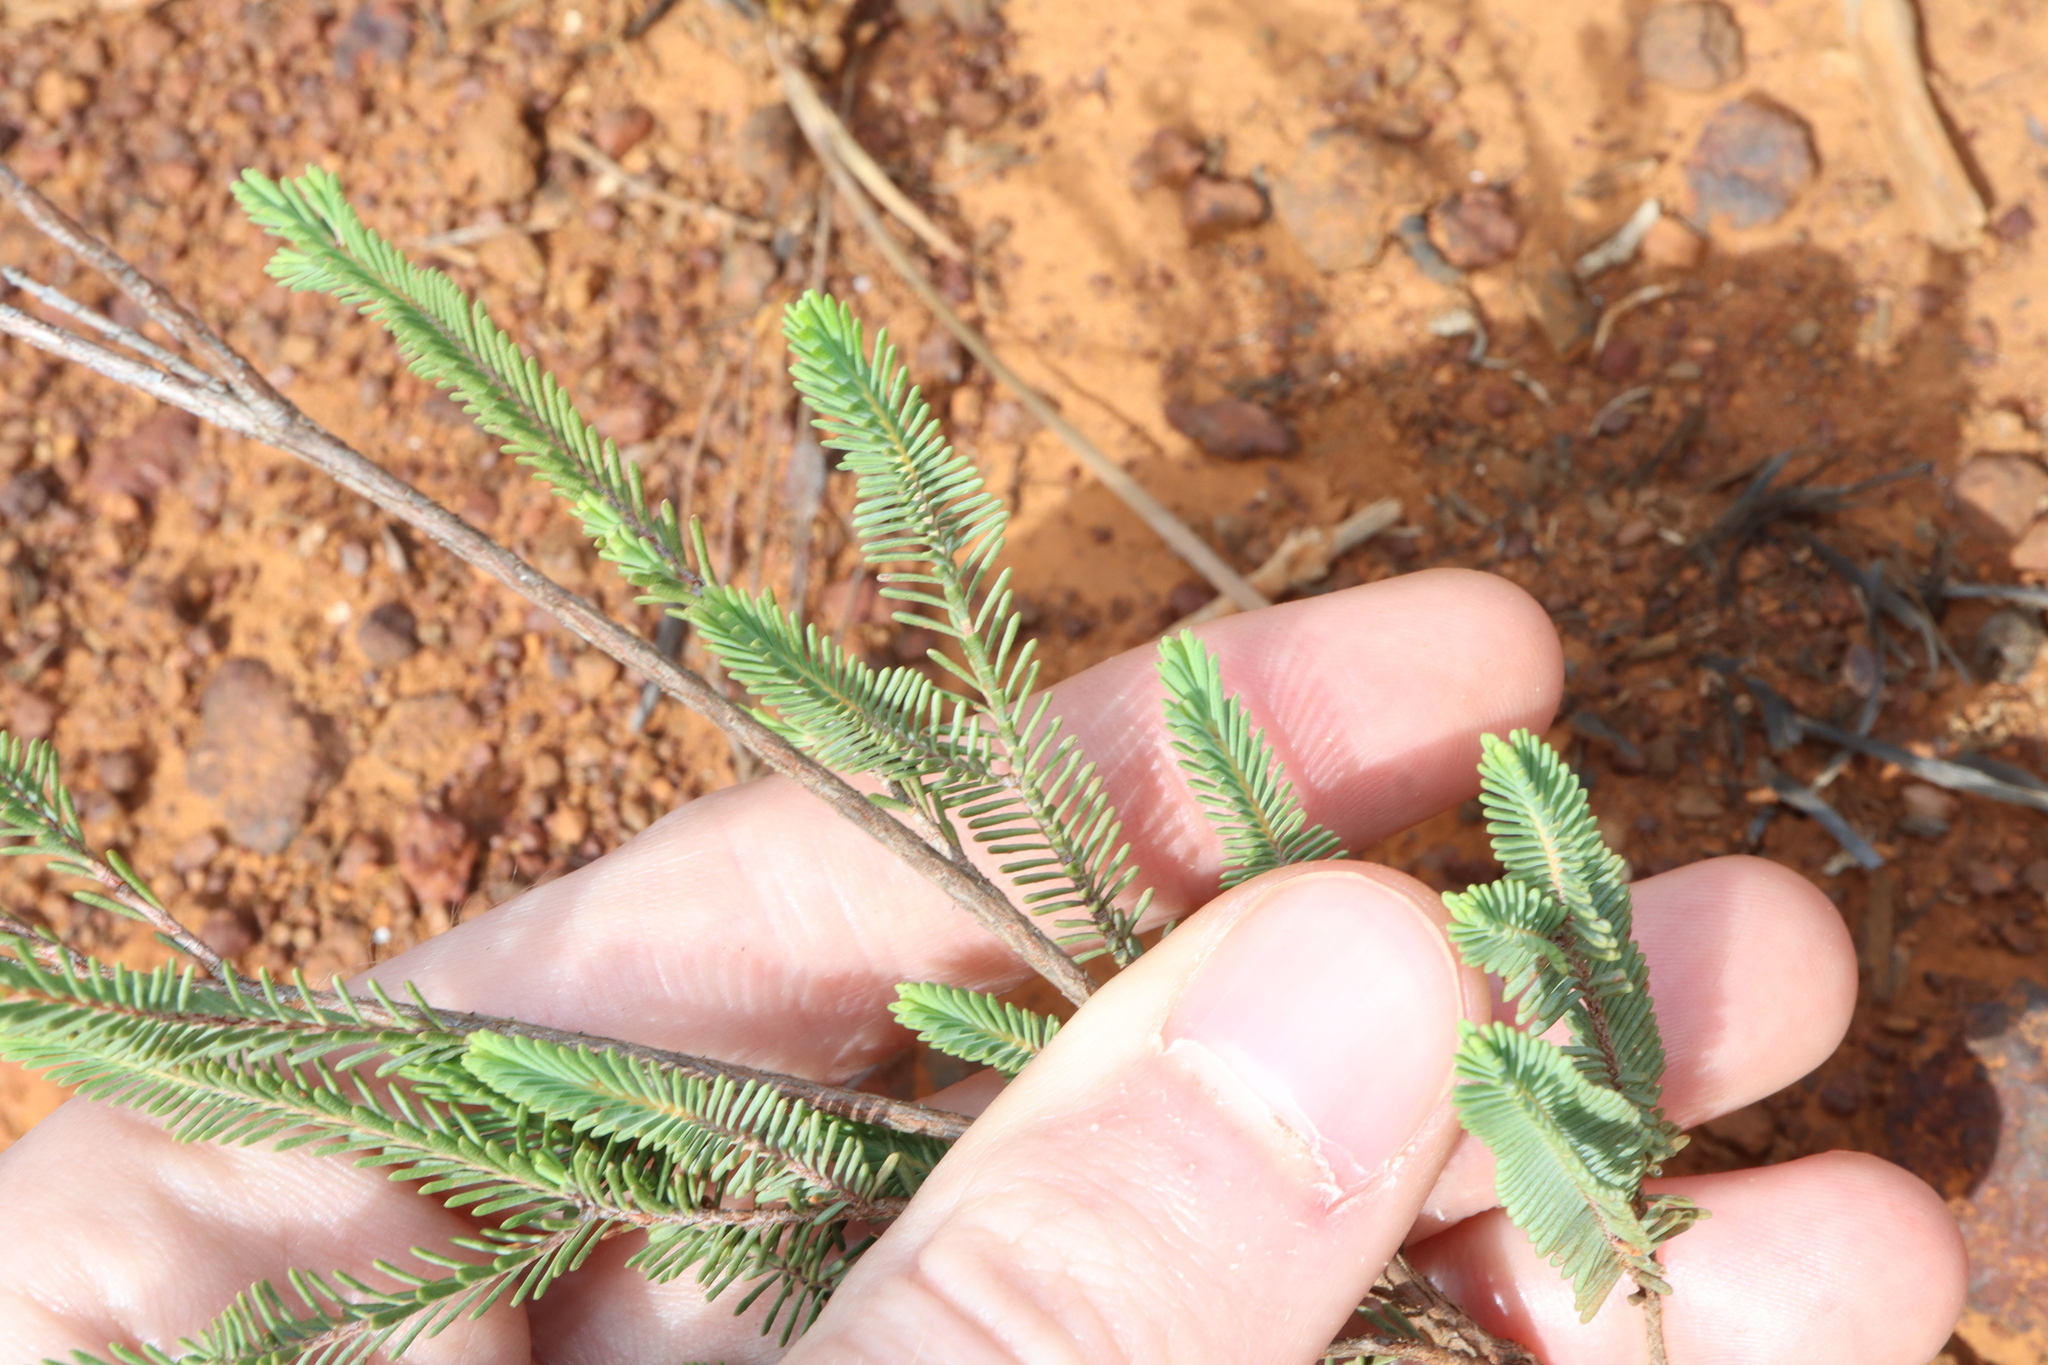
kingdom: Plantae
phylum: Tracheophyta
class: Magnoliopsida
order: Myrtales
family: Myrtaceae
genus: Micromyrtus
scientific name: Micromyrtus navicularis
